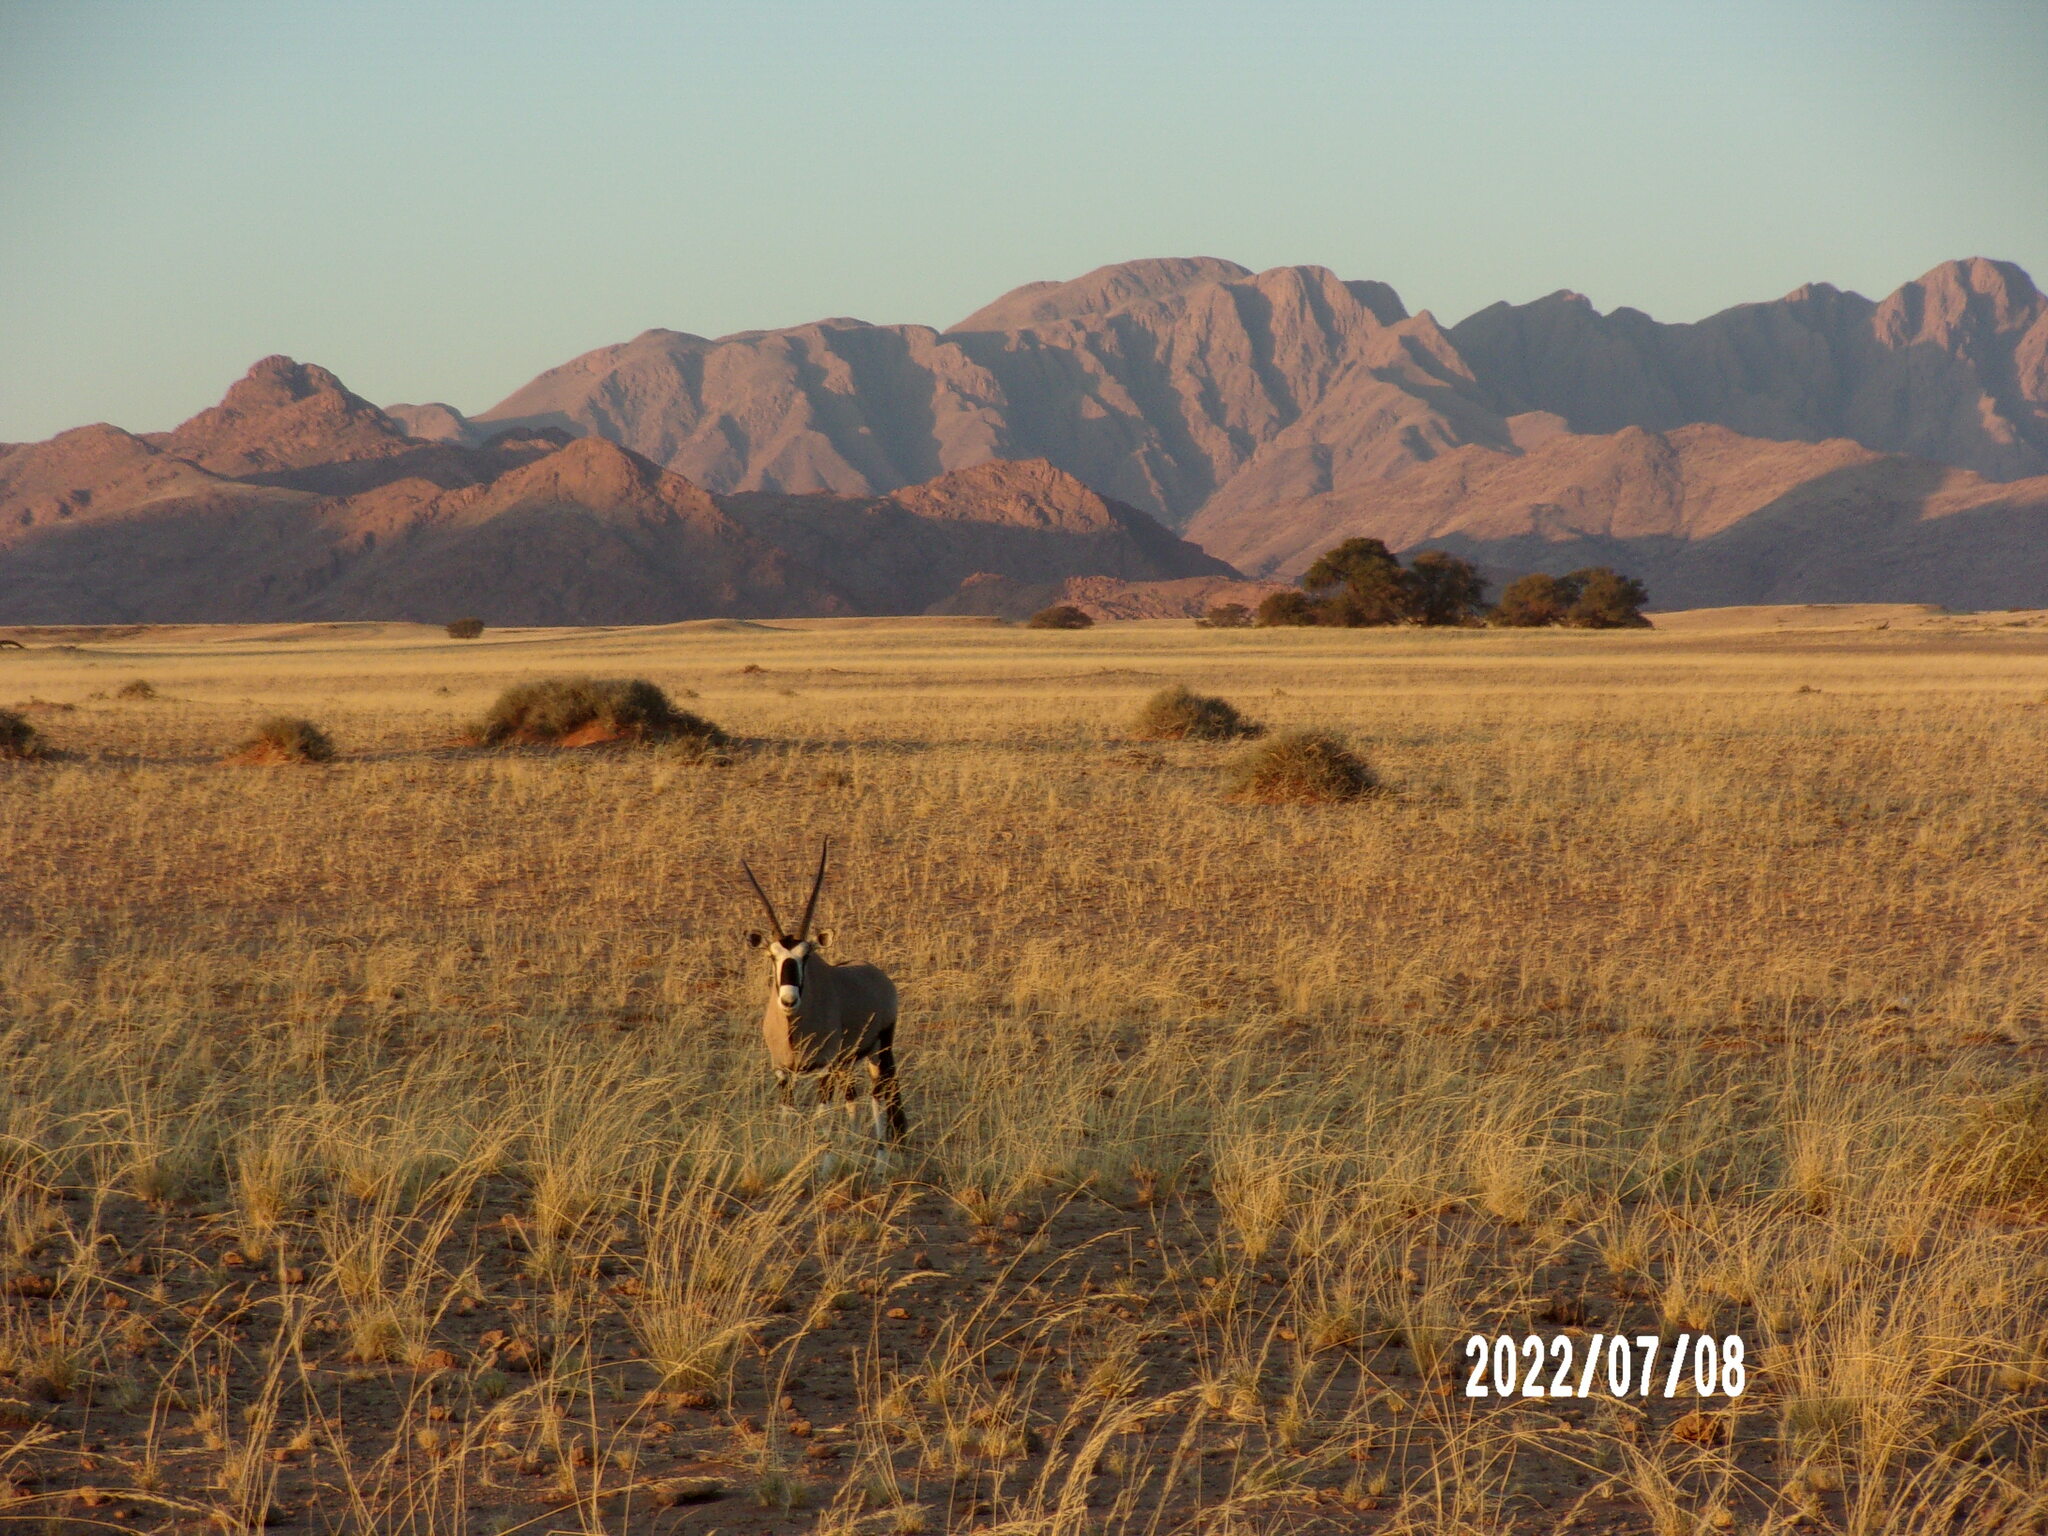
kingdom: Animalia
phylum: Chordata
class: Mammalia
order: Artiodactyla
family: Bovidae
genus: Oryx
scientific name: Oryx gazella
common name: Gemsbok
